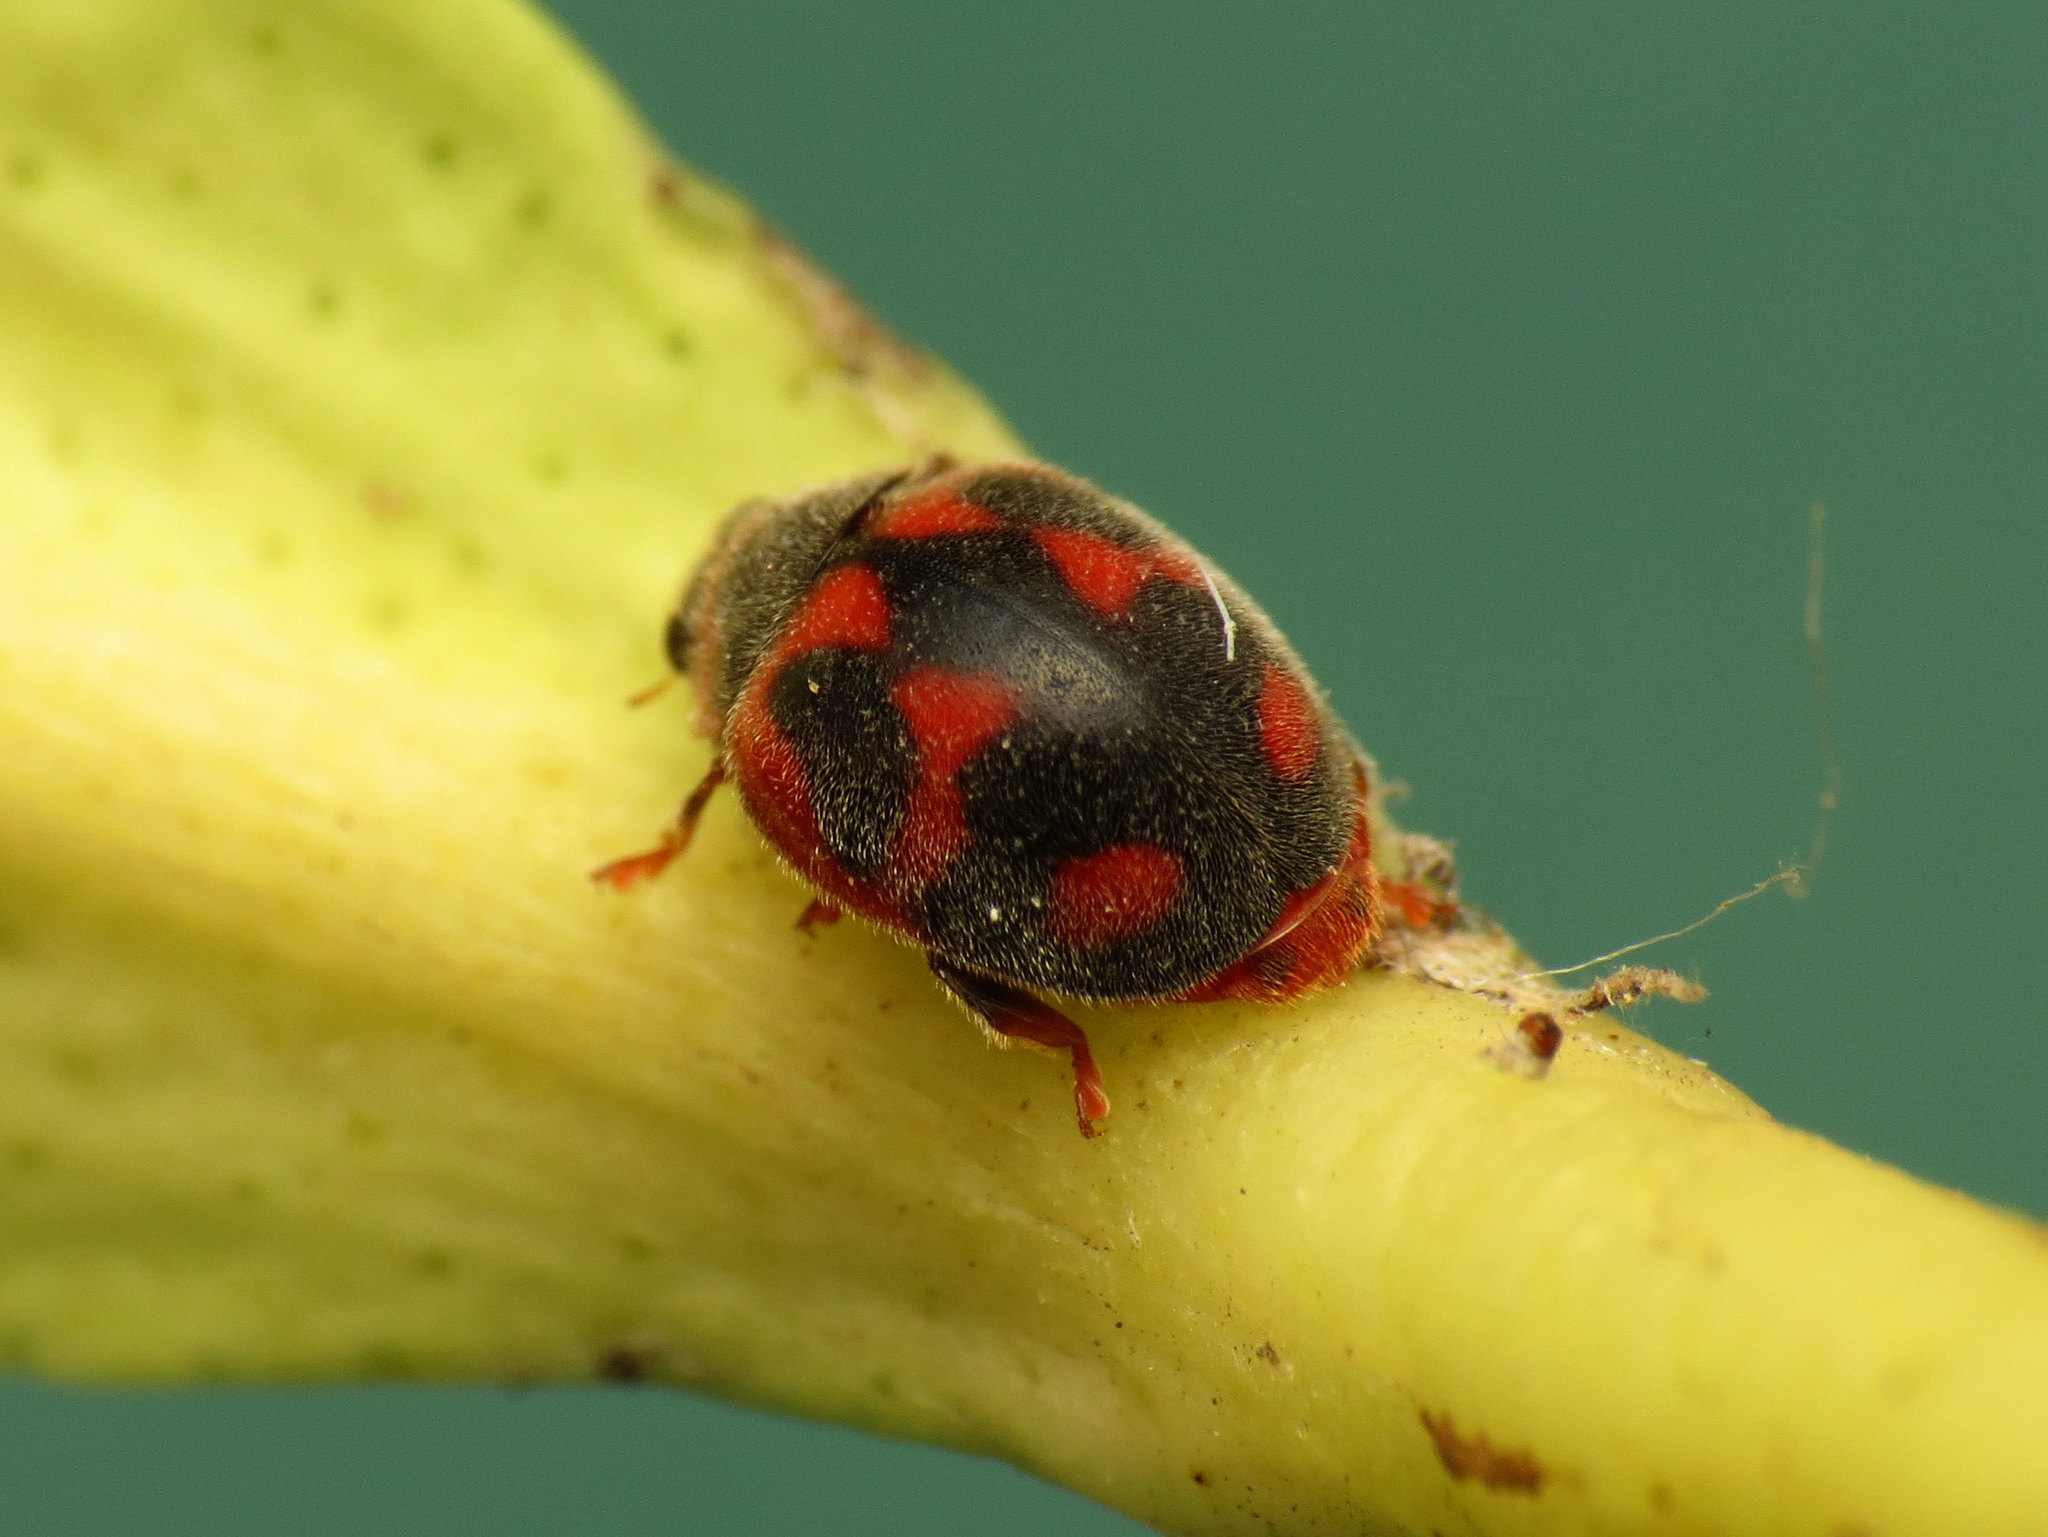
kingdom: Animalia
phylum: Arthropoda
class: Insecta
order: Coleoptera
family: Coccinellidae
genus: Novius
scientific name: Novius cardinalis
